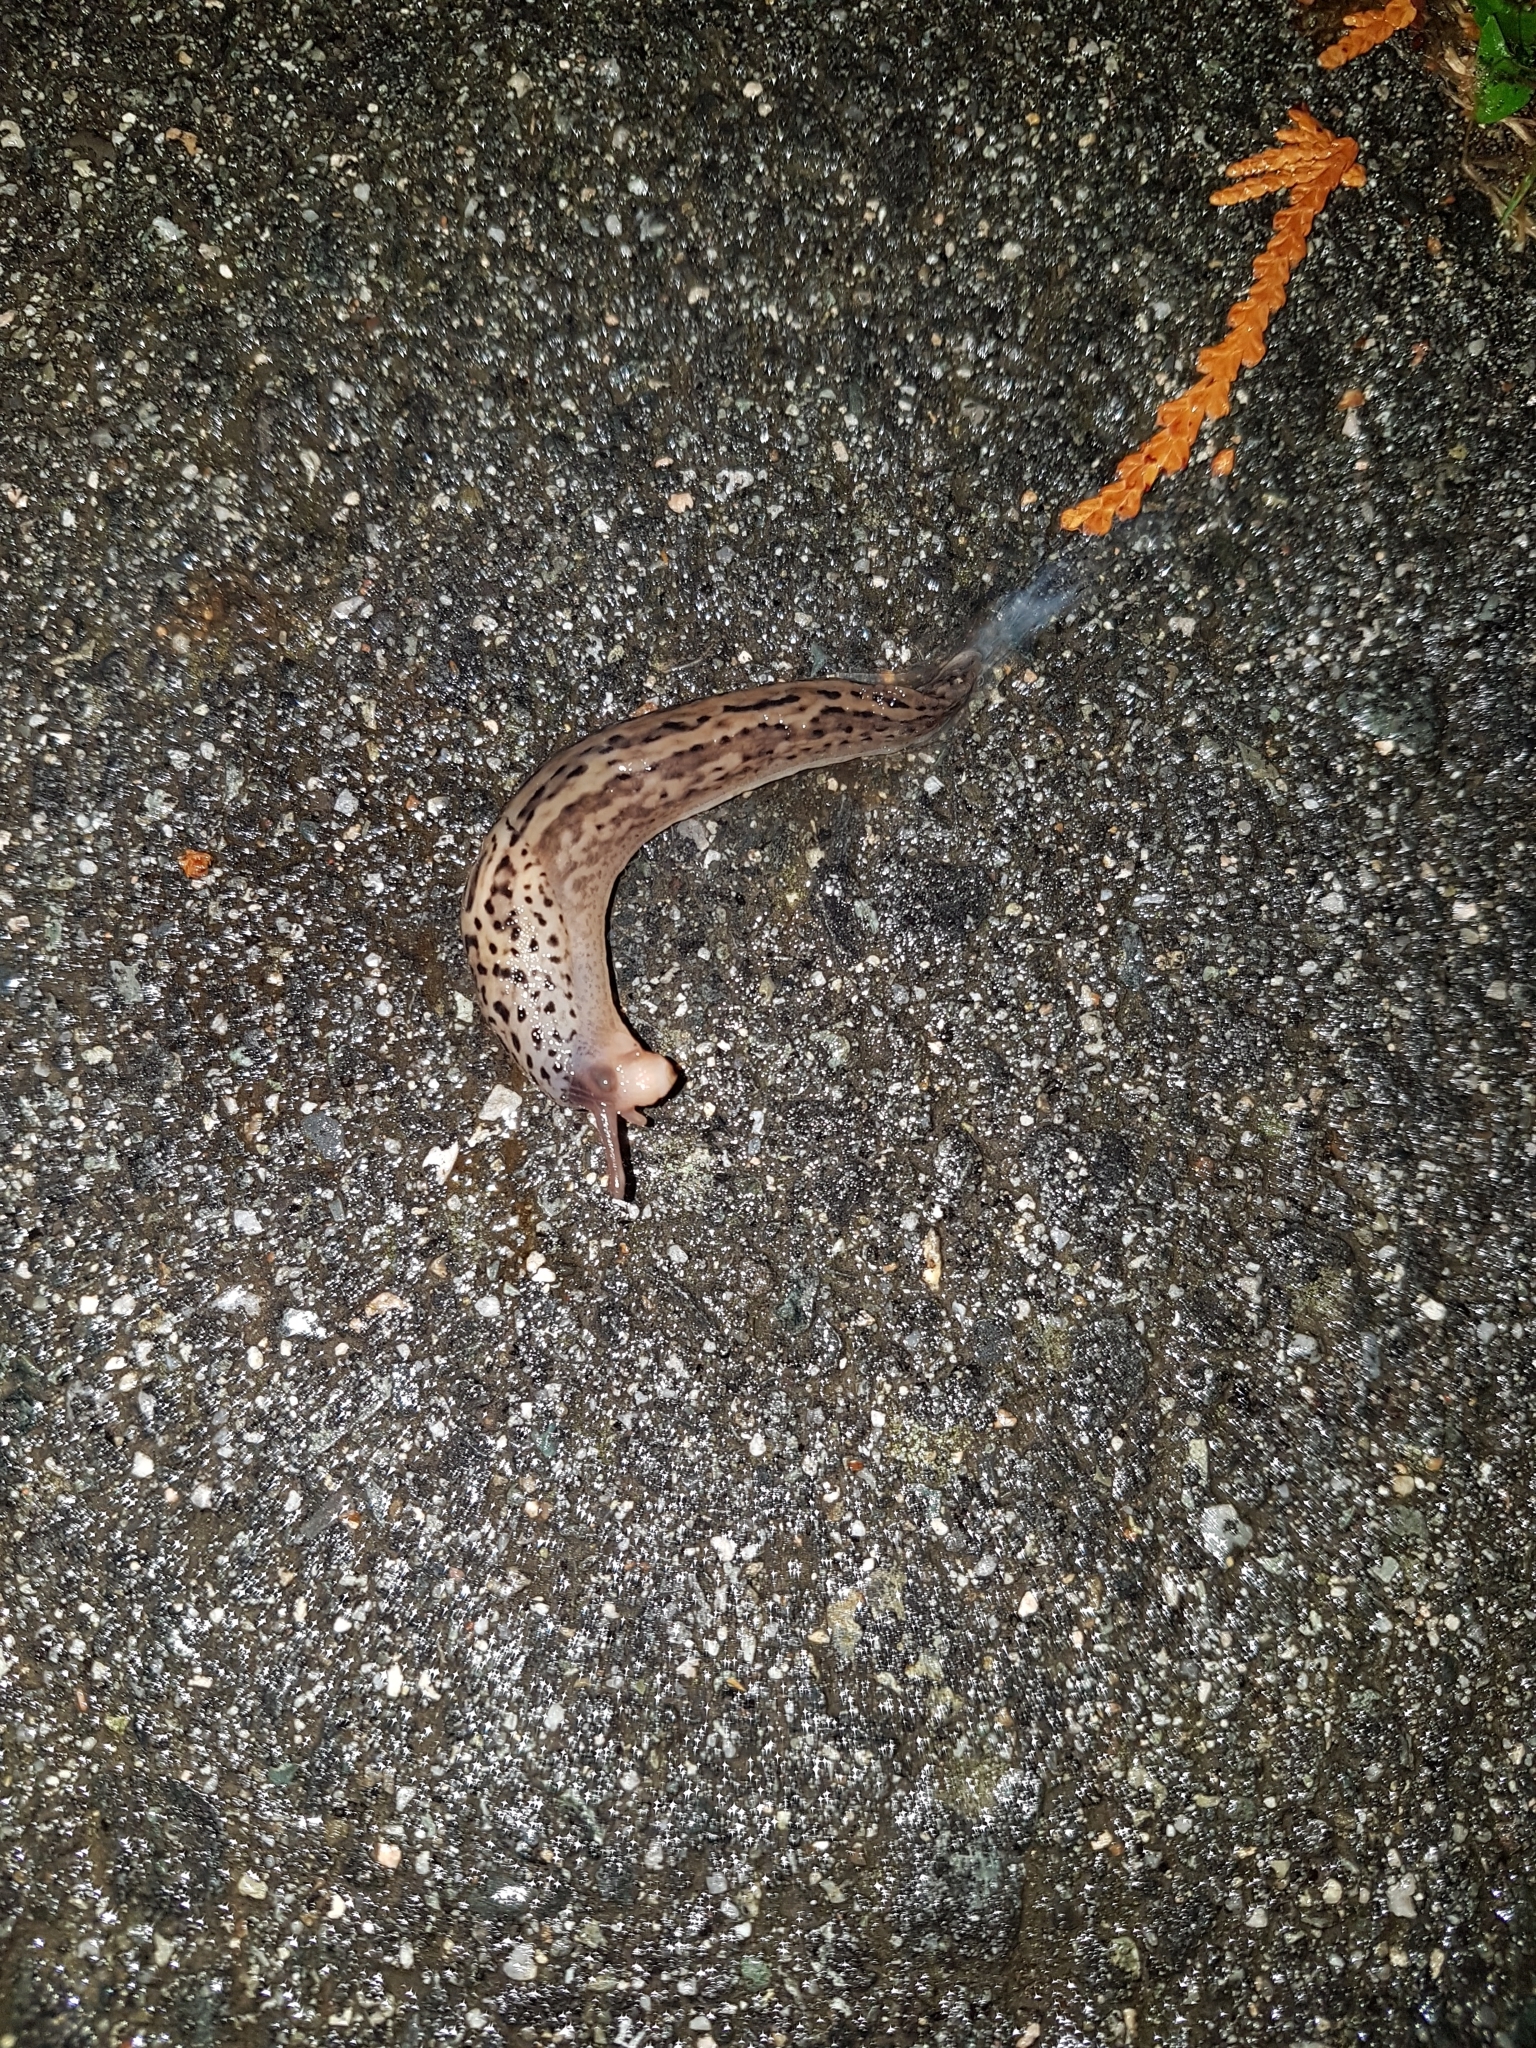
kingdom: Animalia
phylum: Mollusca
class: Gastropoda
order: Stylommatophora
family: Limacidae
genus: Limax
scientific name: Limax maximus
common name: Great grey slug
